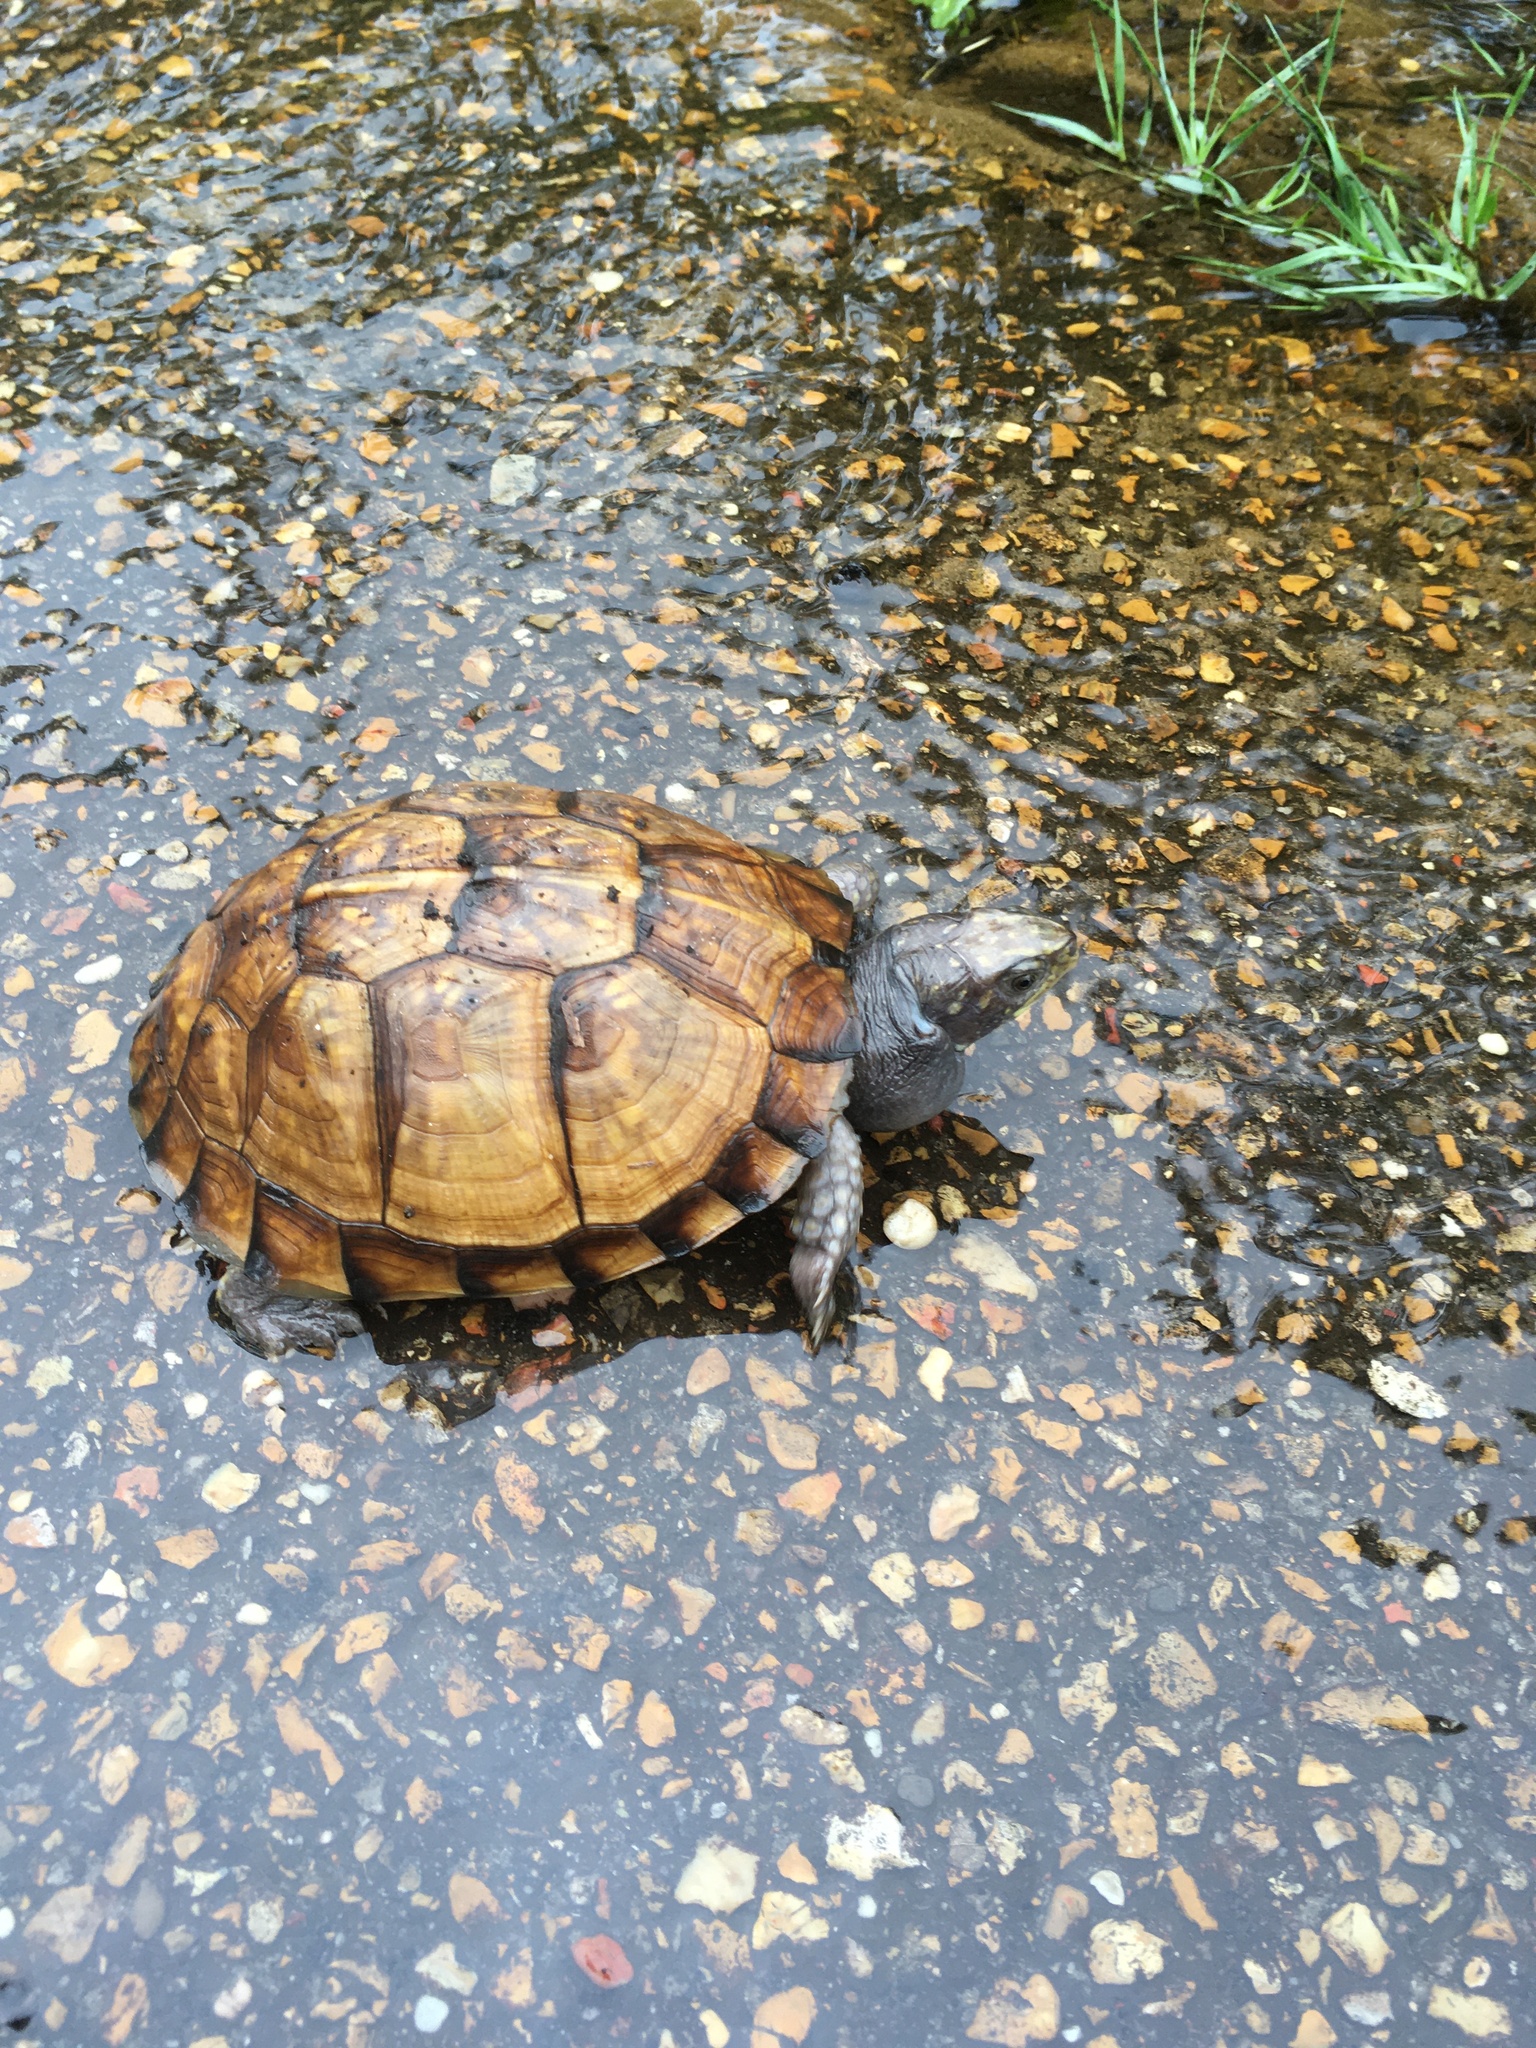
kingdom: Animalia
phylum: Chordata
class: Testudines
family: Emydidae
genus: Terrapene
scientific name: Terrapene carolina
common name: Common box turtle
